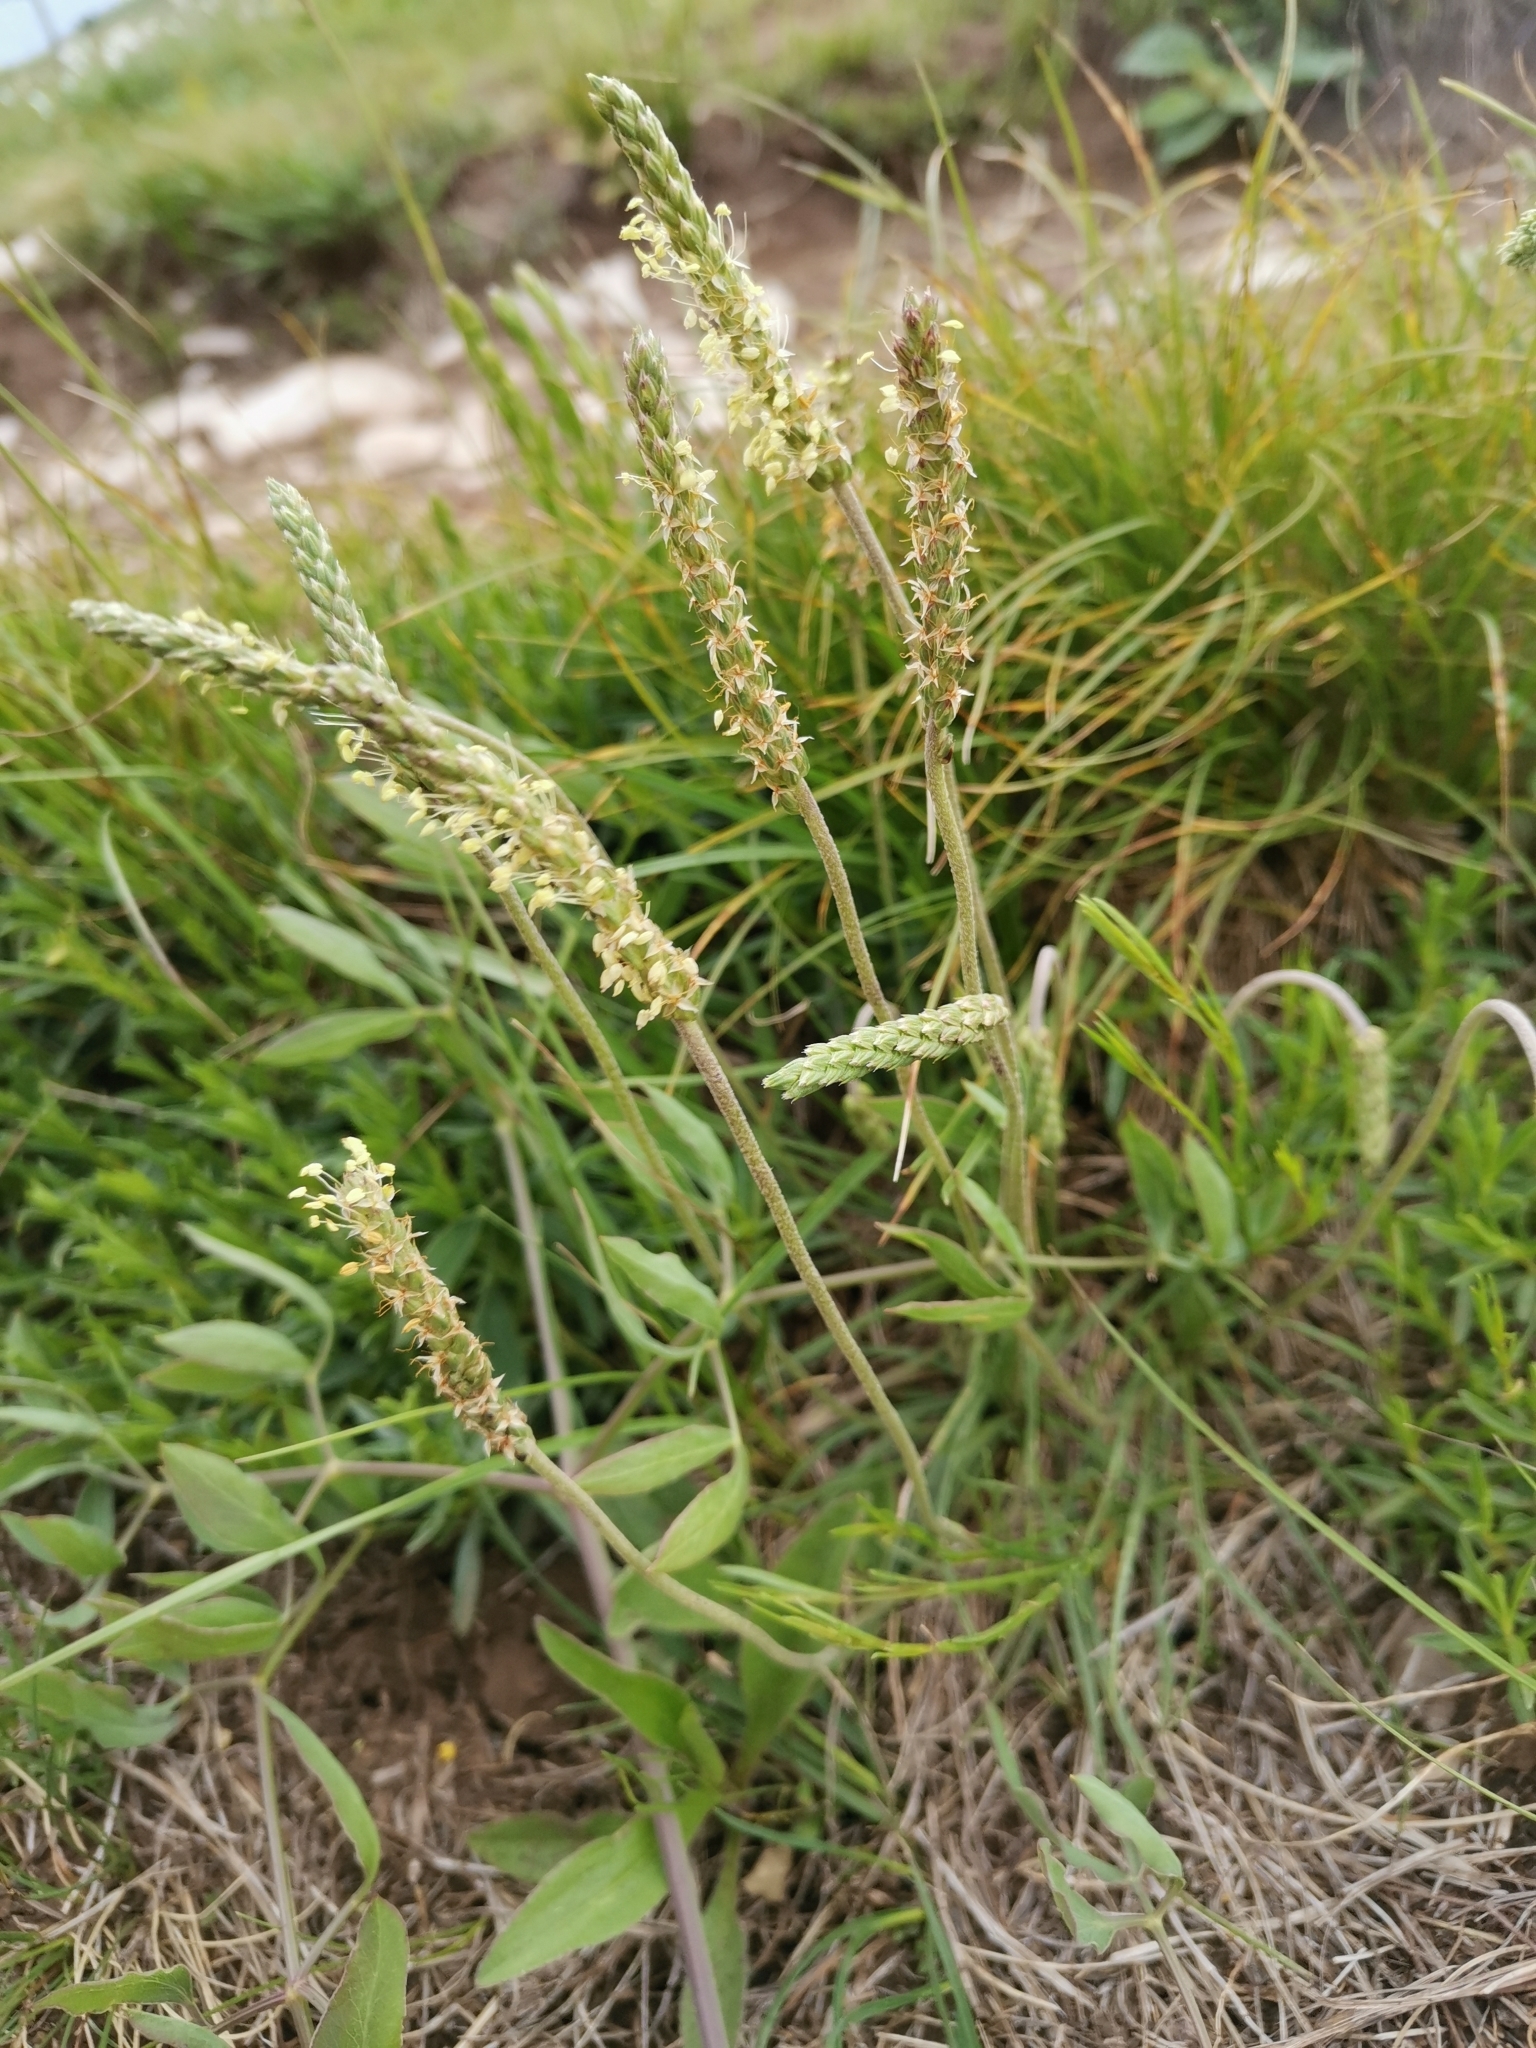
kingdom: Plantae
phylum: Tracheophyta
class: Magnoliopsida
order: Lamiales
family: Plantaginaceae
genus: Plantago
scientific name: Plantago subulata
